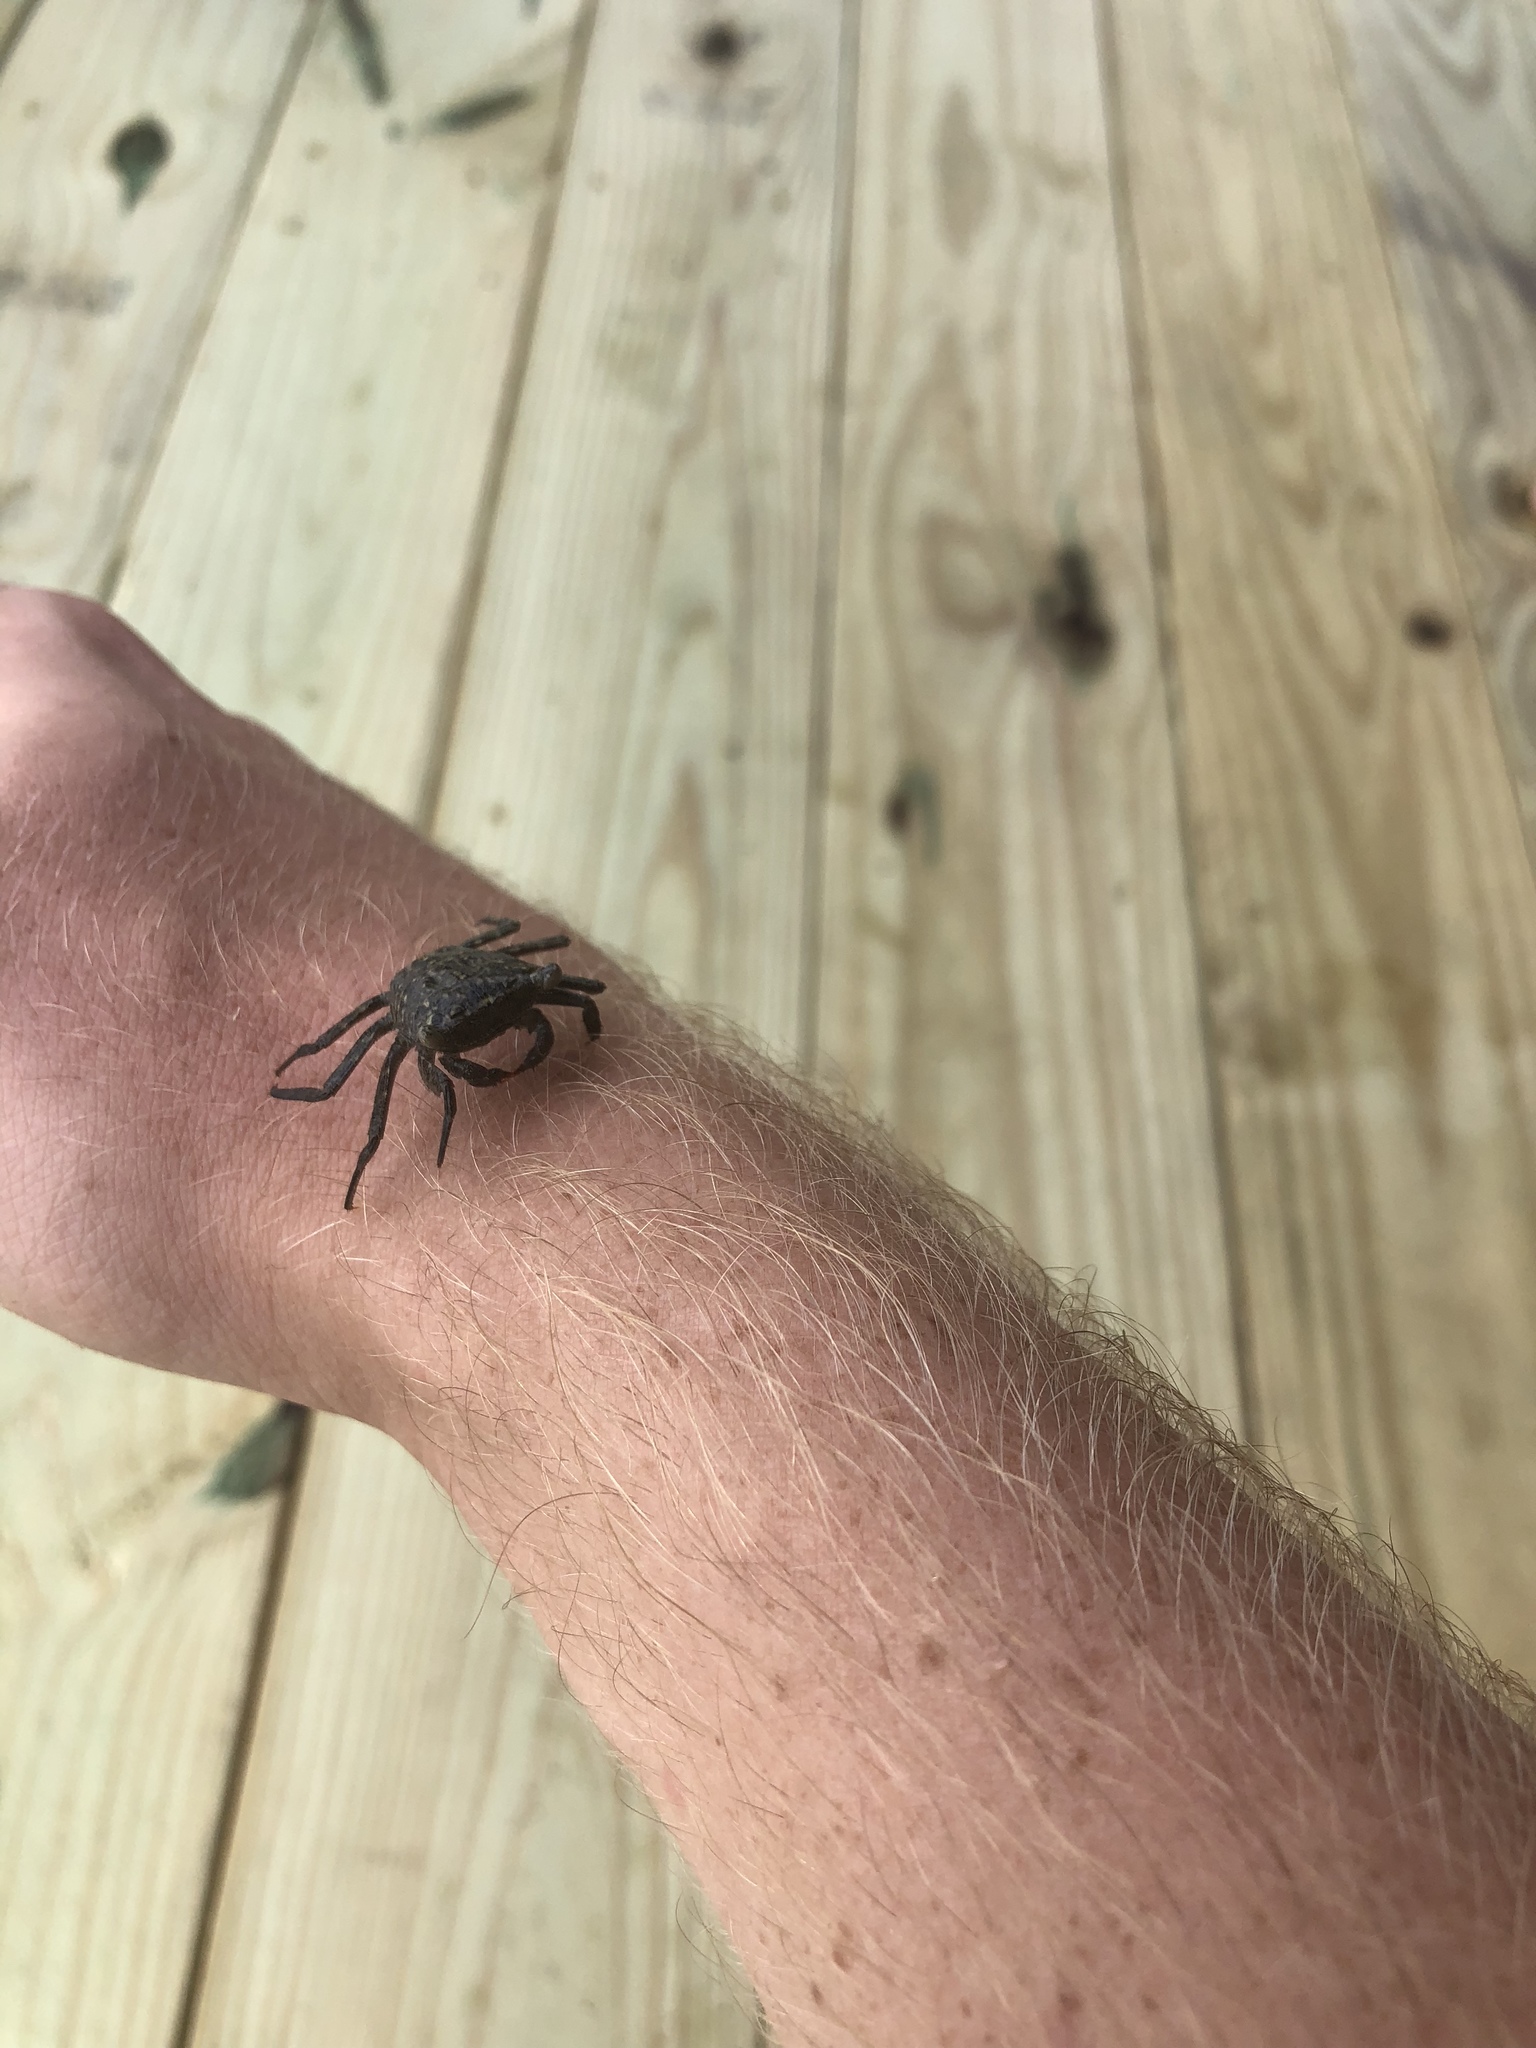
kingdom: Animalia
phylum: Arthropoda
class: Malacostraca
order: Decapoda
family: Sesarmidae
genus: Aratus
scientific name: Aratus pisonii
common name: Mangrove crab
